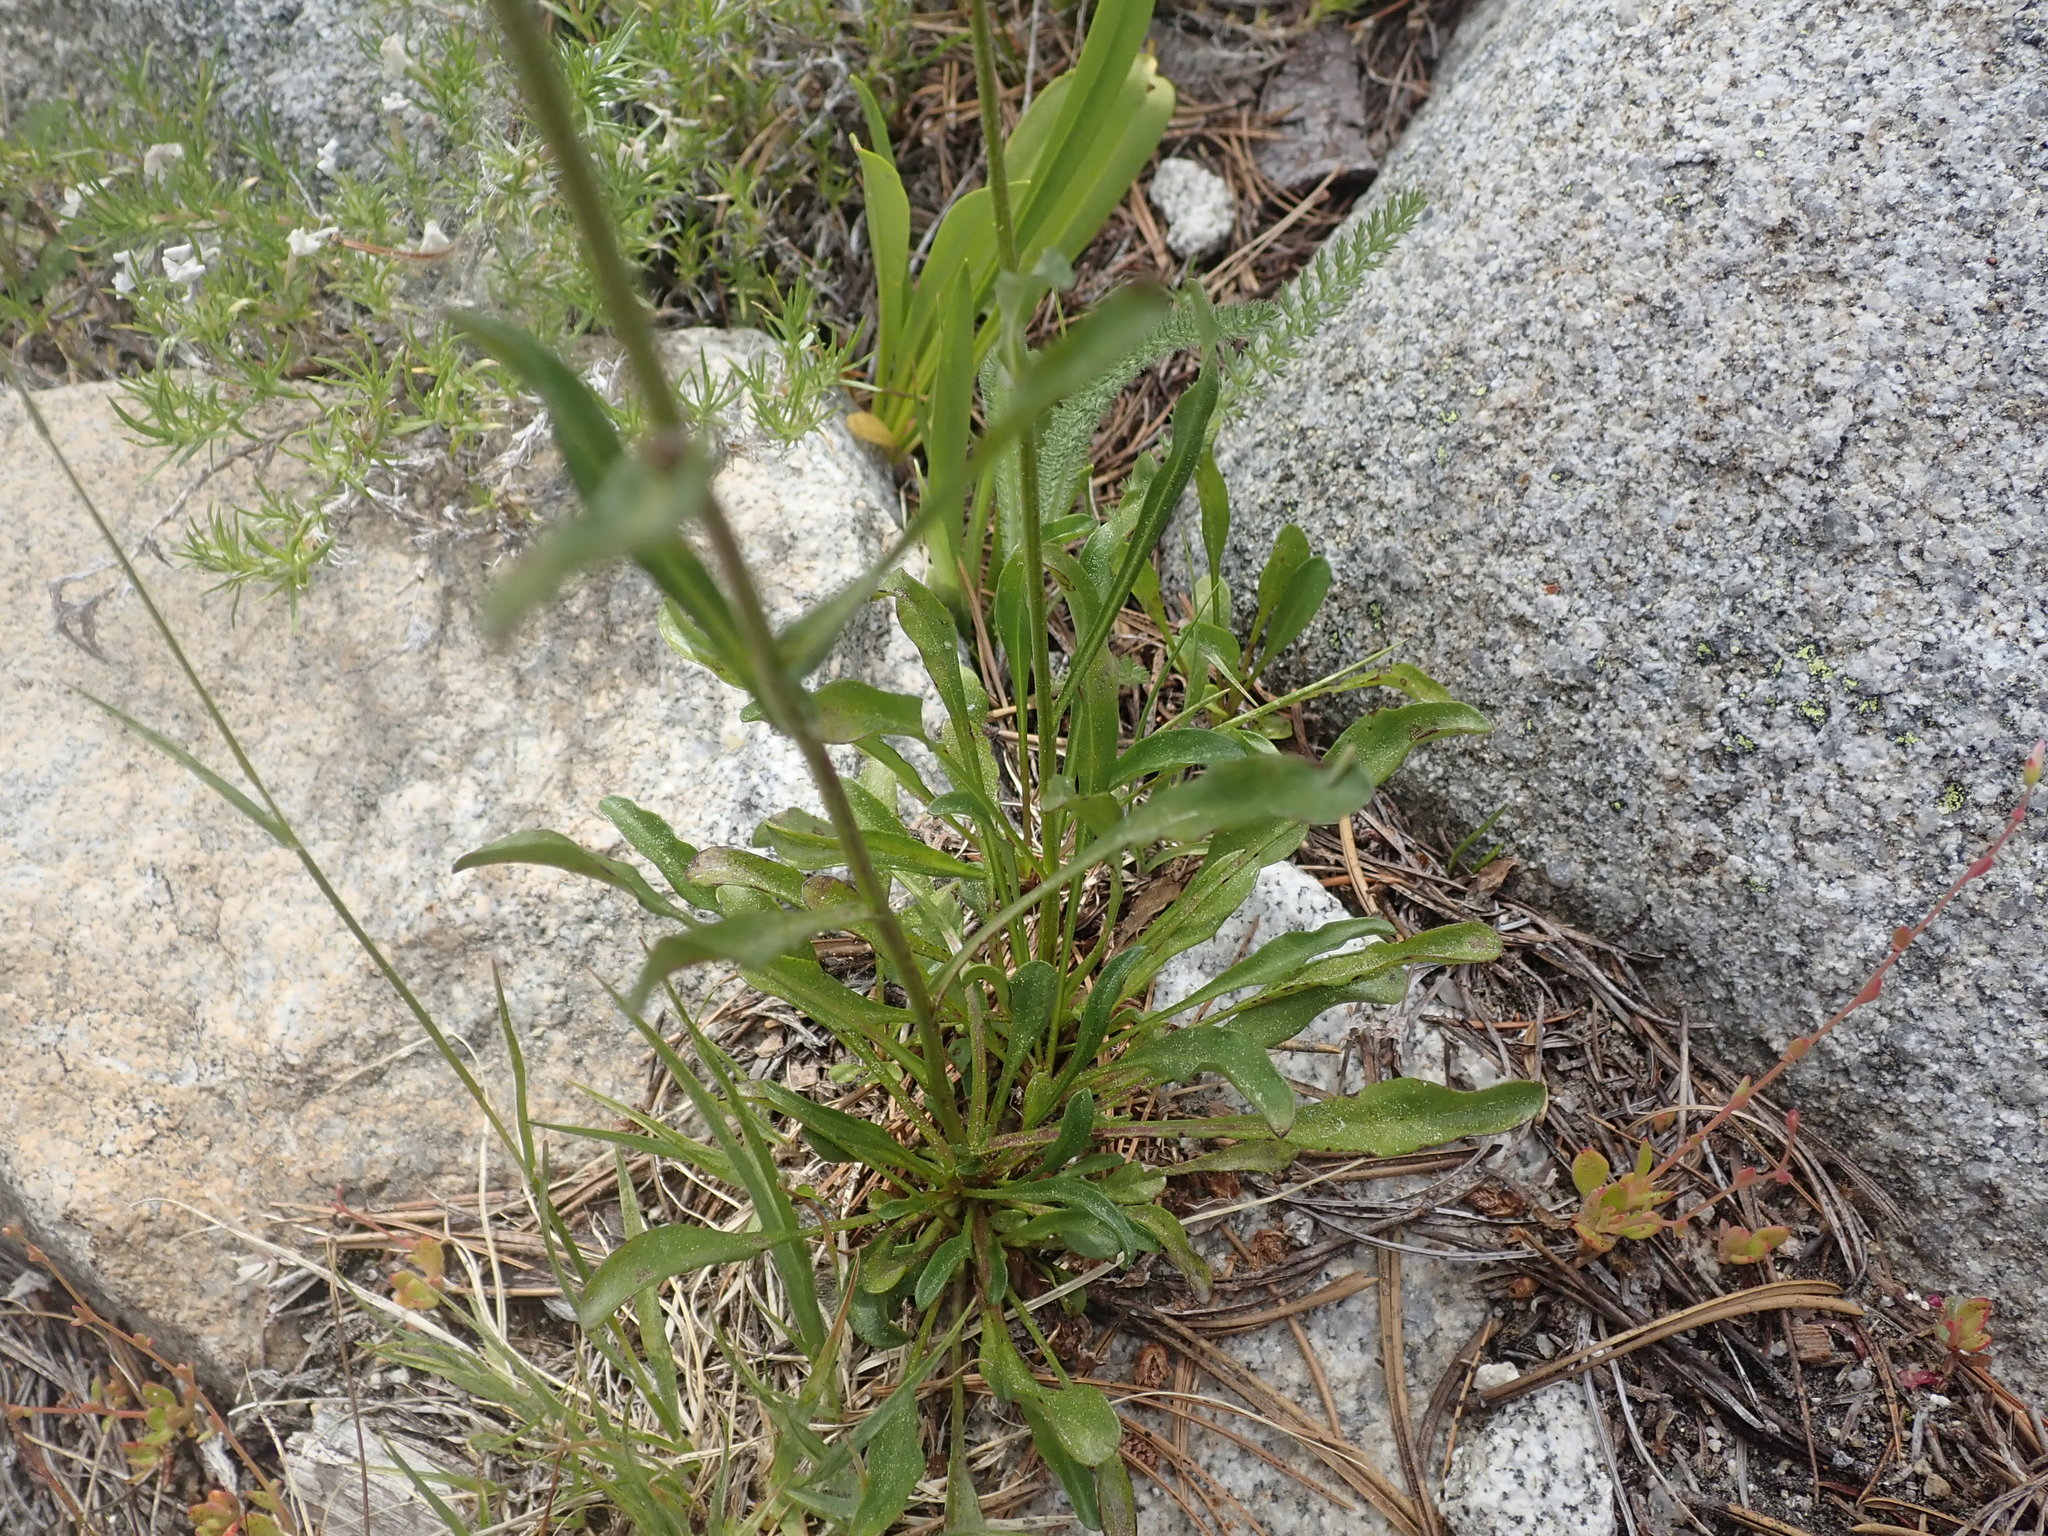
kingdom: Plantae
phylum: Tracheophyta
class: Magnoliopsida
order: Asterales
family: Asteraceae
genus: Erigeron
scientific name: Erigeron glacialis
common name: Subalpine fleabane
